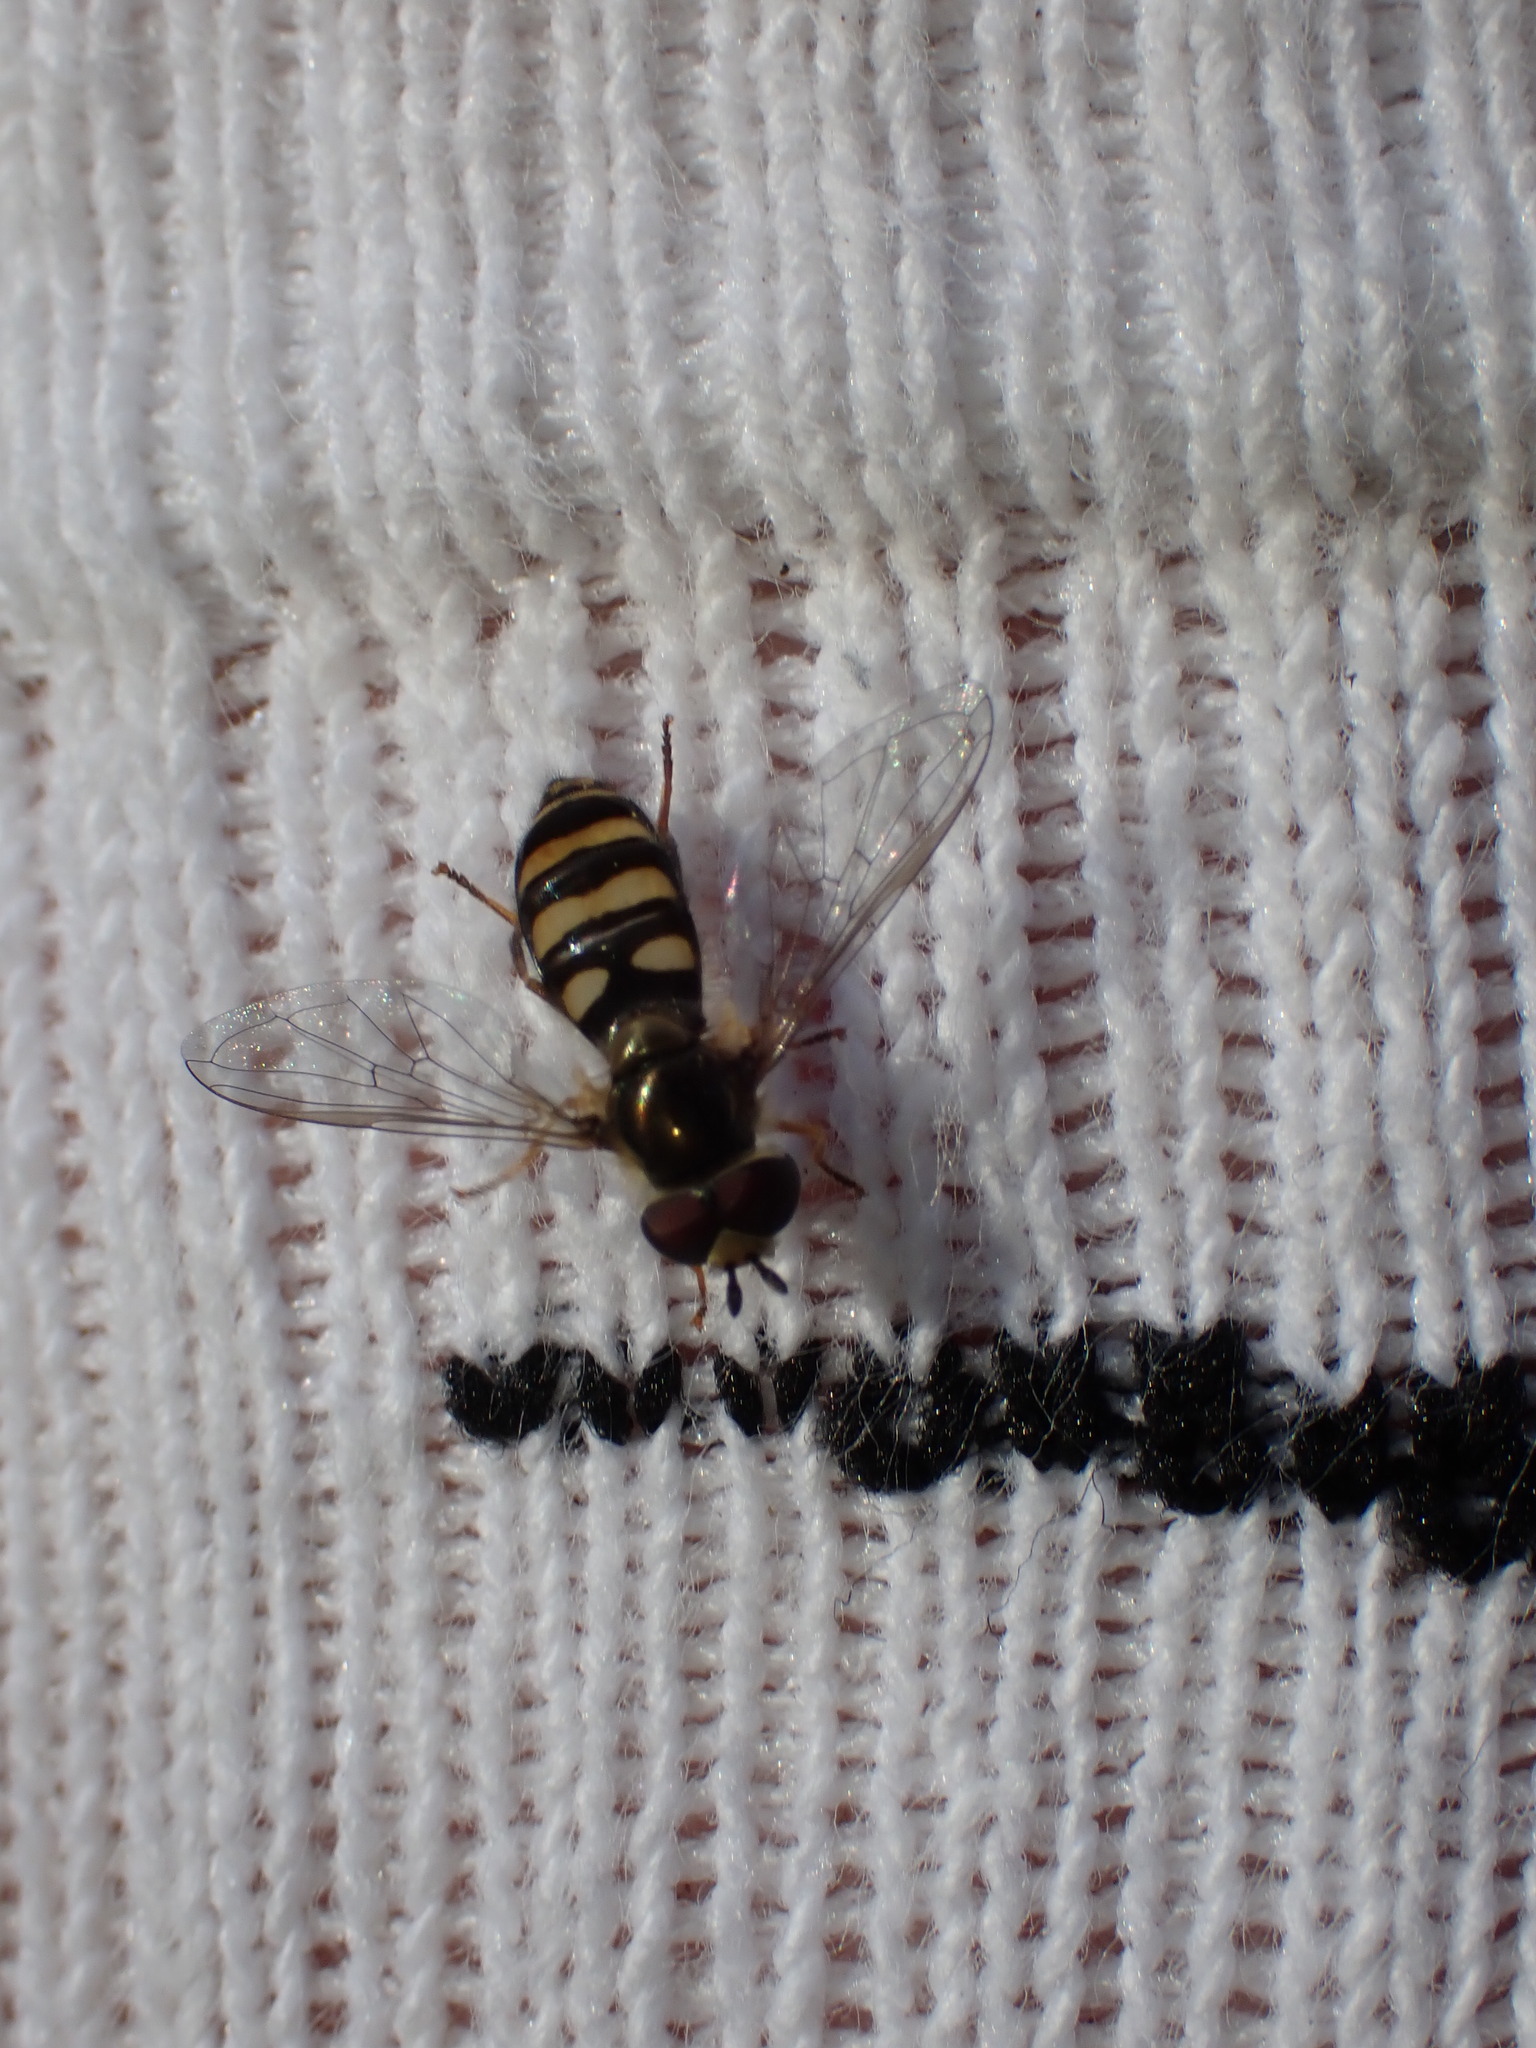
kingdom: Animalia
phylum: Arthropoda
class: Insecta
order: Diptera
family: Syrphidae
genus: Eupeodes
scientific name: Eupeodes
